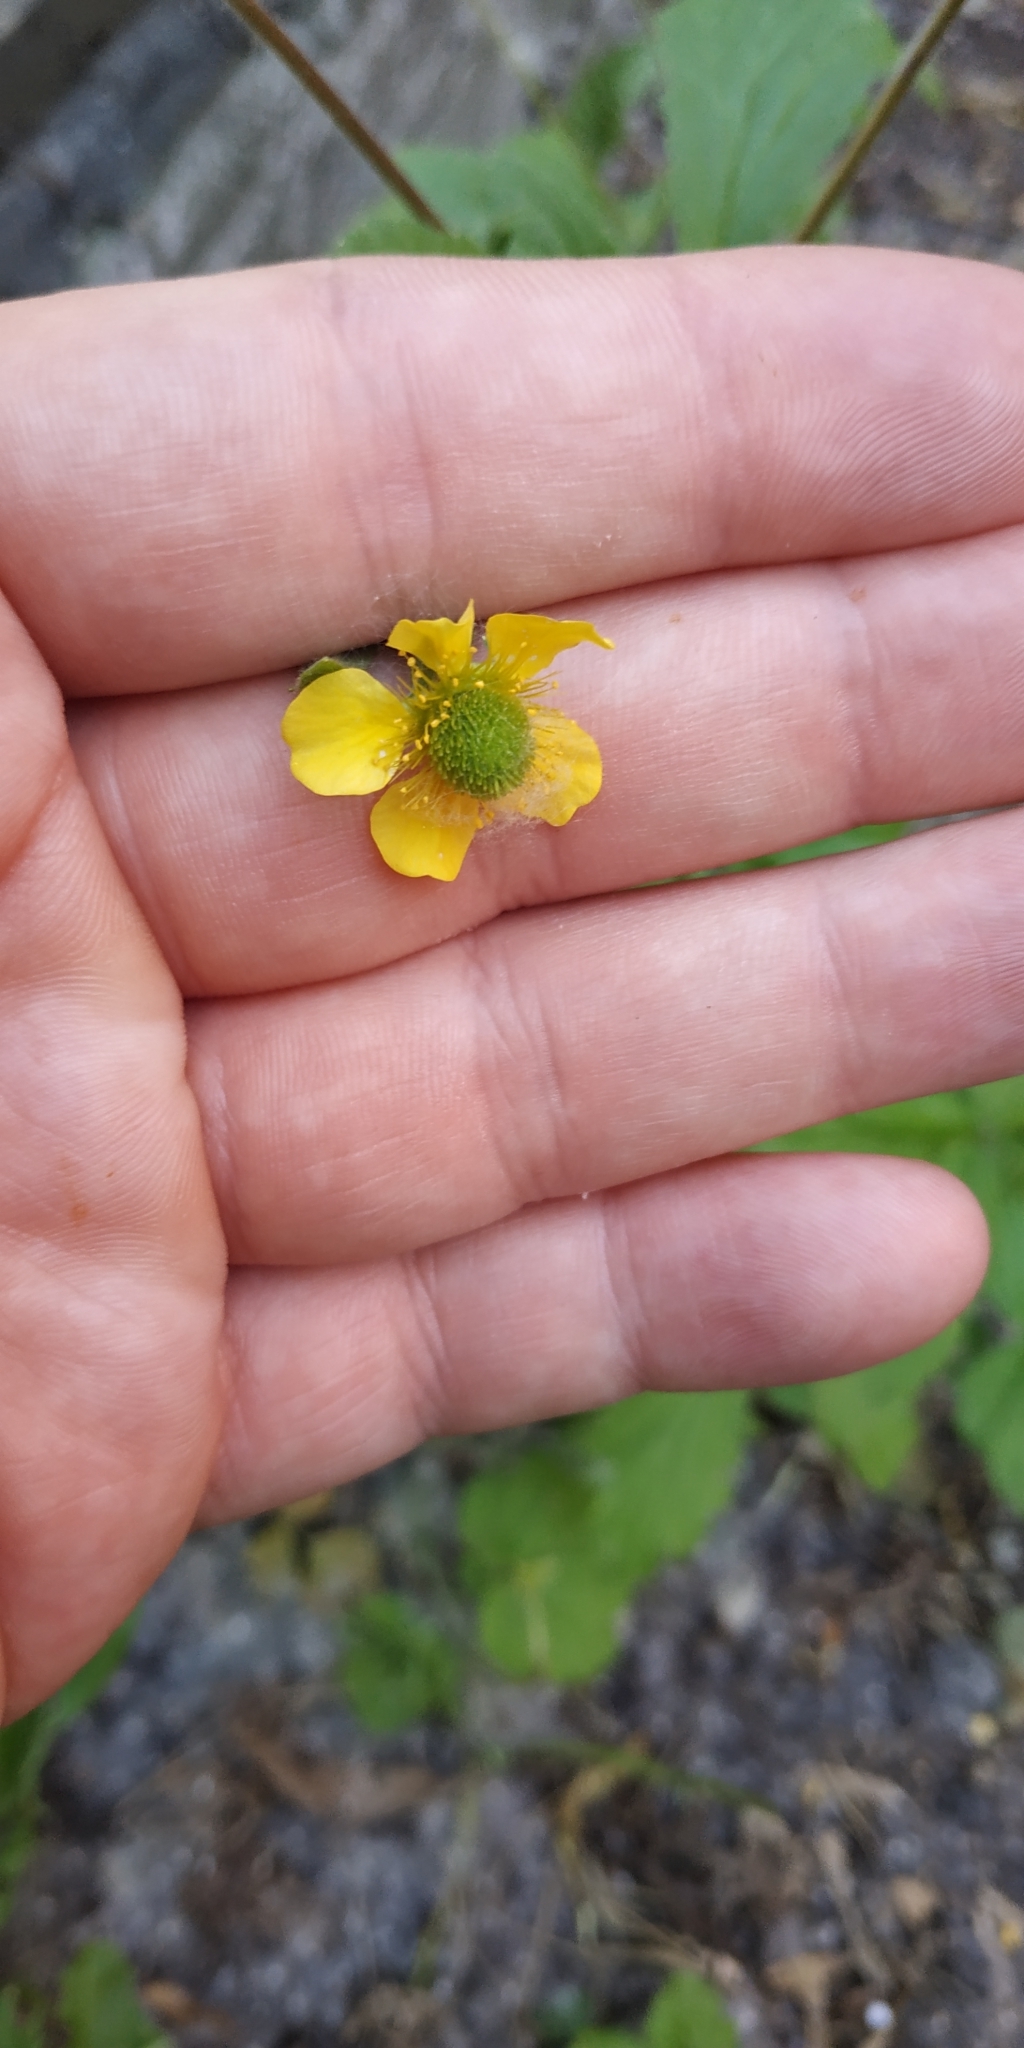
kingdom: Plantae
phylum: Tracheophyta
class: Magnoliopsida
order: Rosales
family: Rosaceae
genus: Geum
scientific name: Geum aleppicum
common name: Yellow avens
